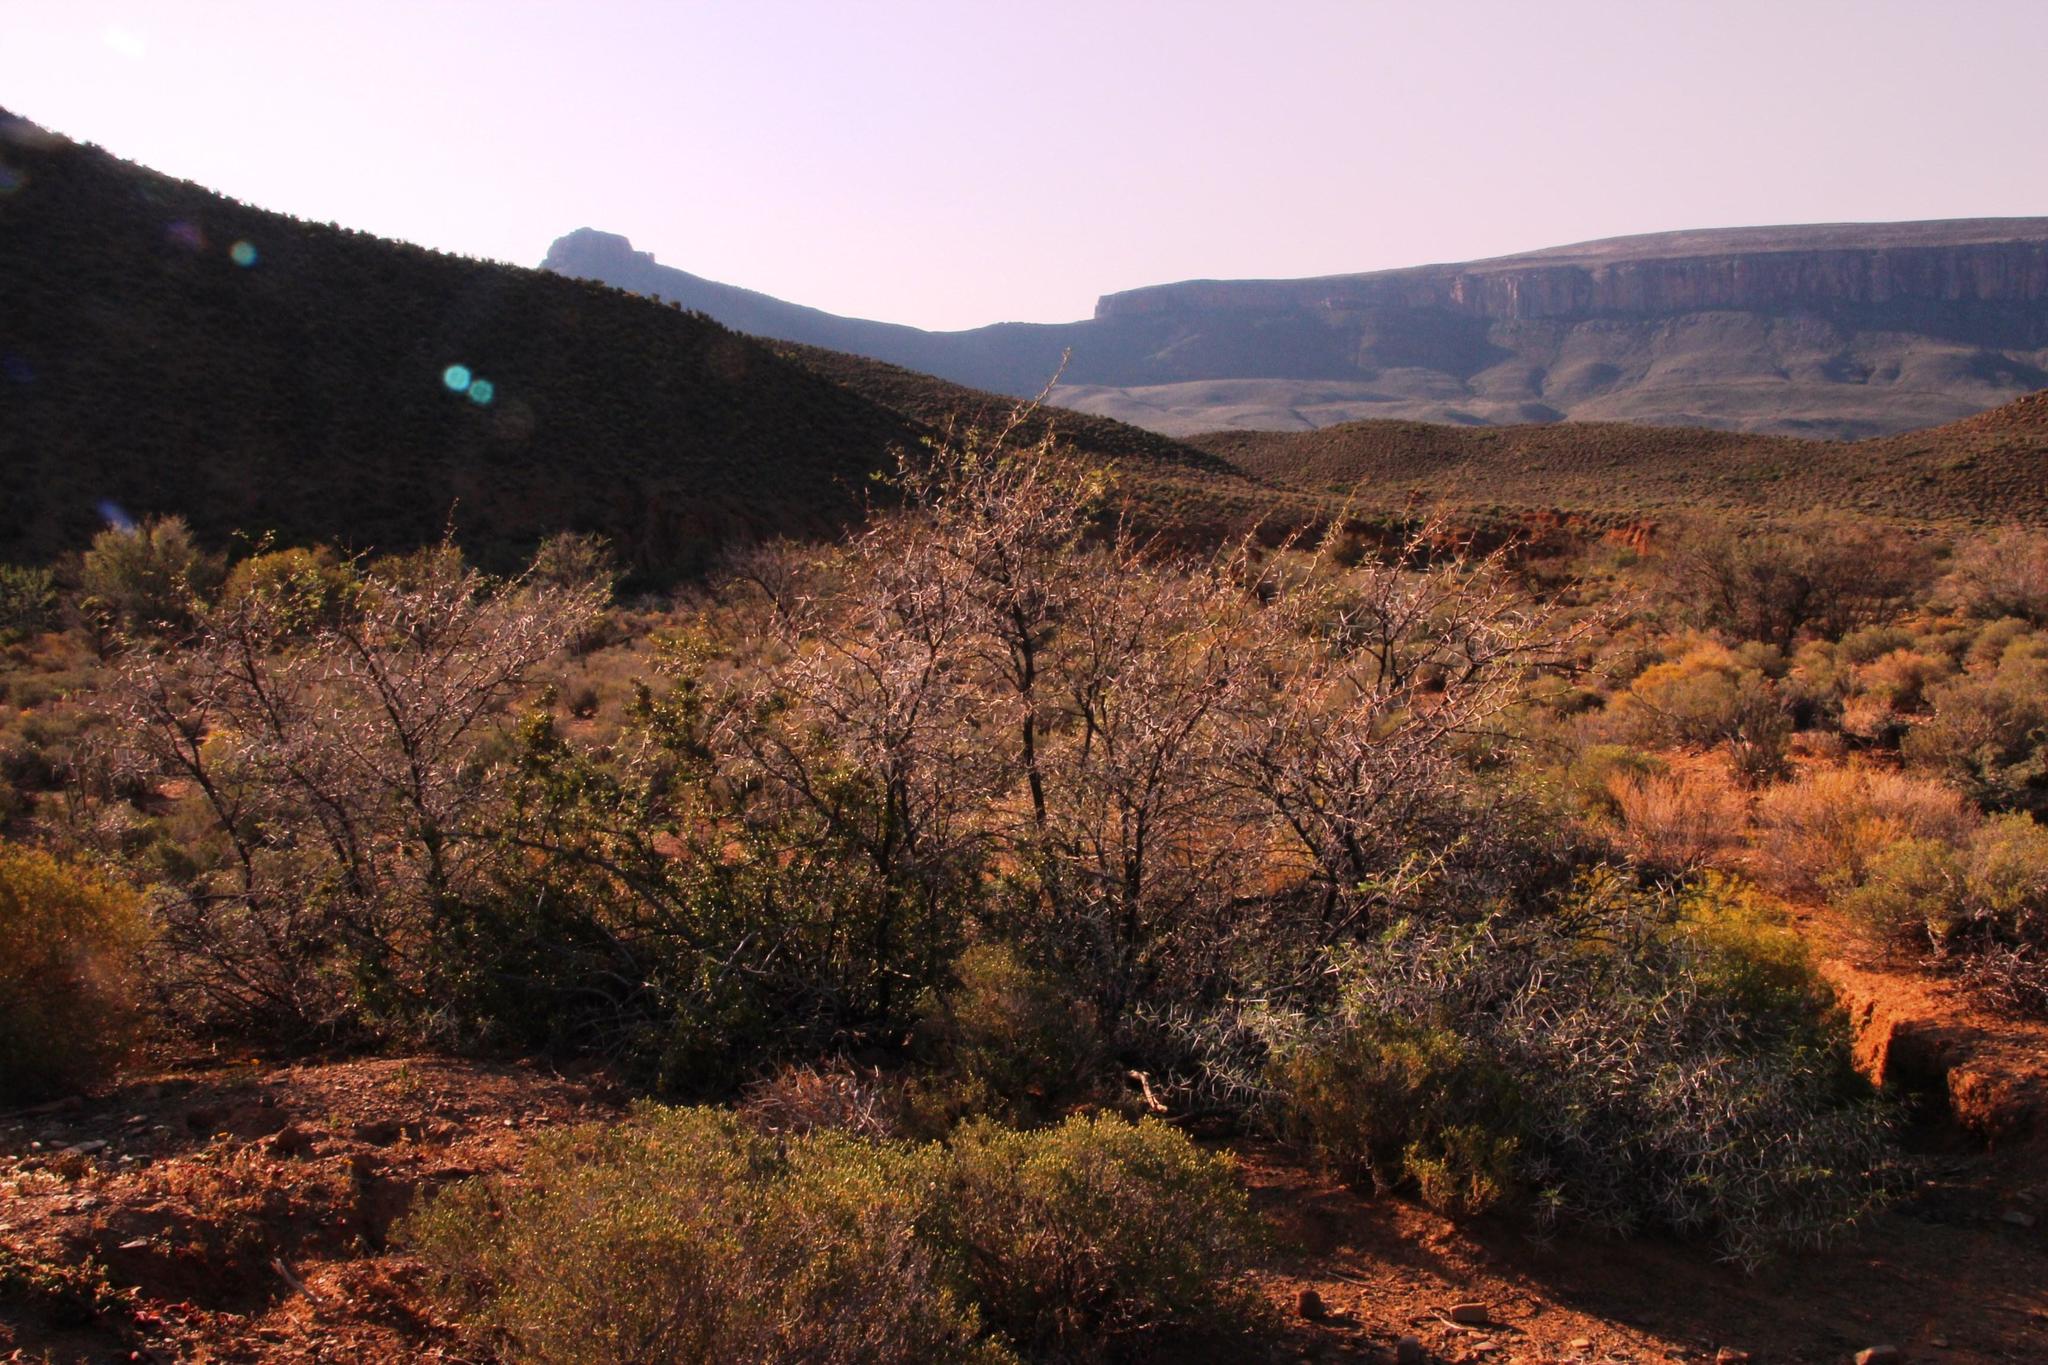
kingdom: Plantae
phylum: Tracheophyta
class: Magnoliopsida
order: Fabales
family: Fabaceae
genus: Vachellia
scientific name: Vachellia karroo
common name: Sweet thorn
